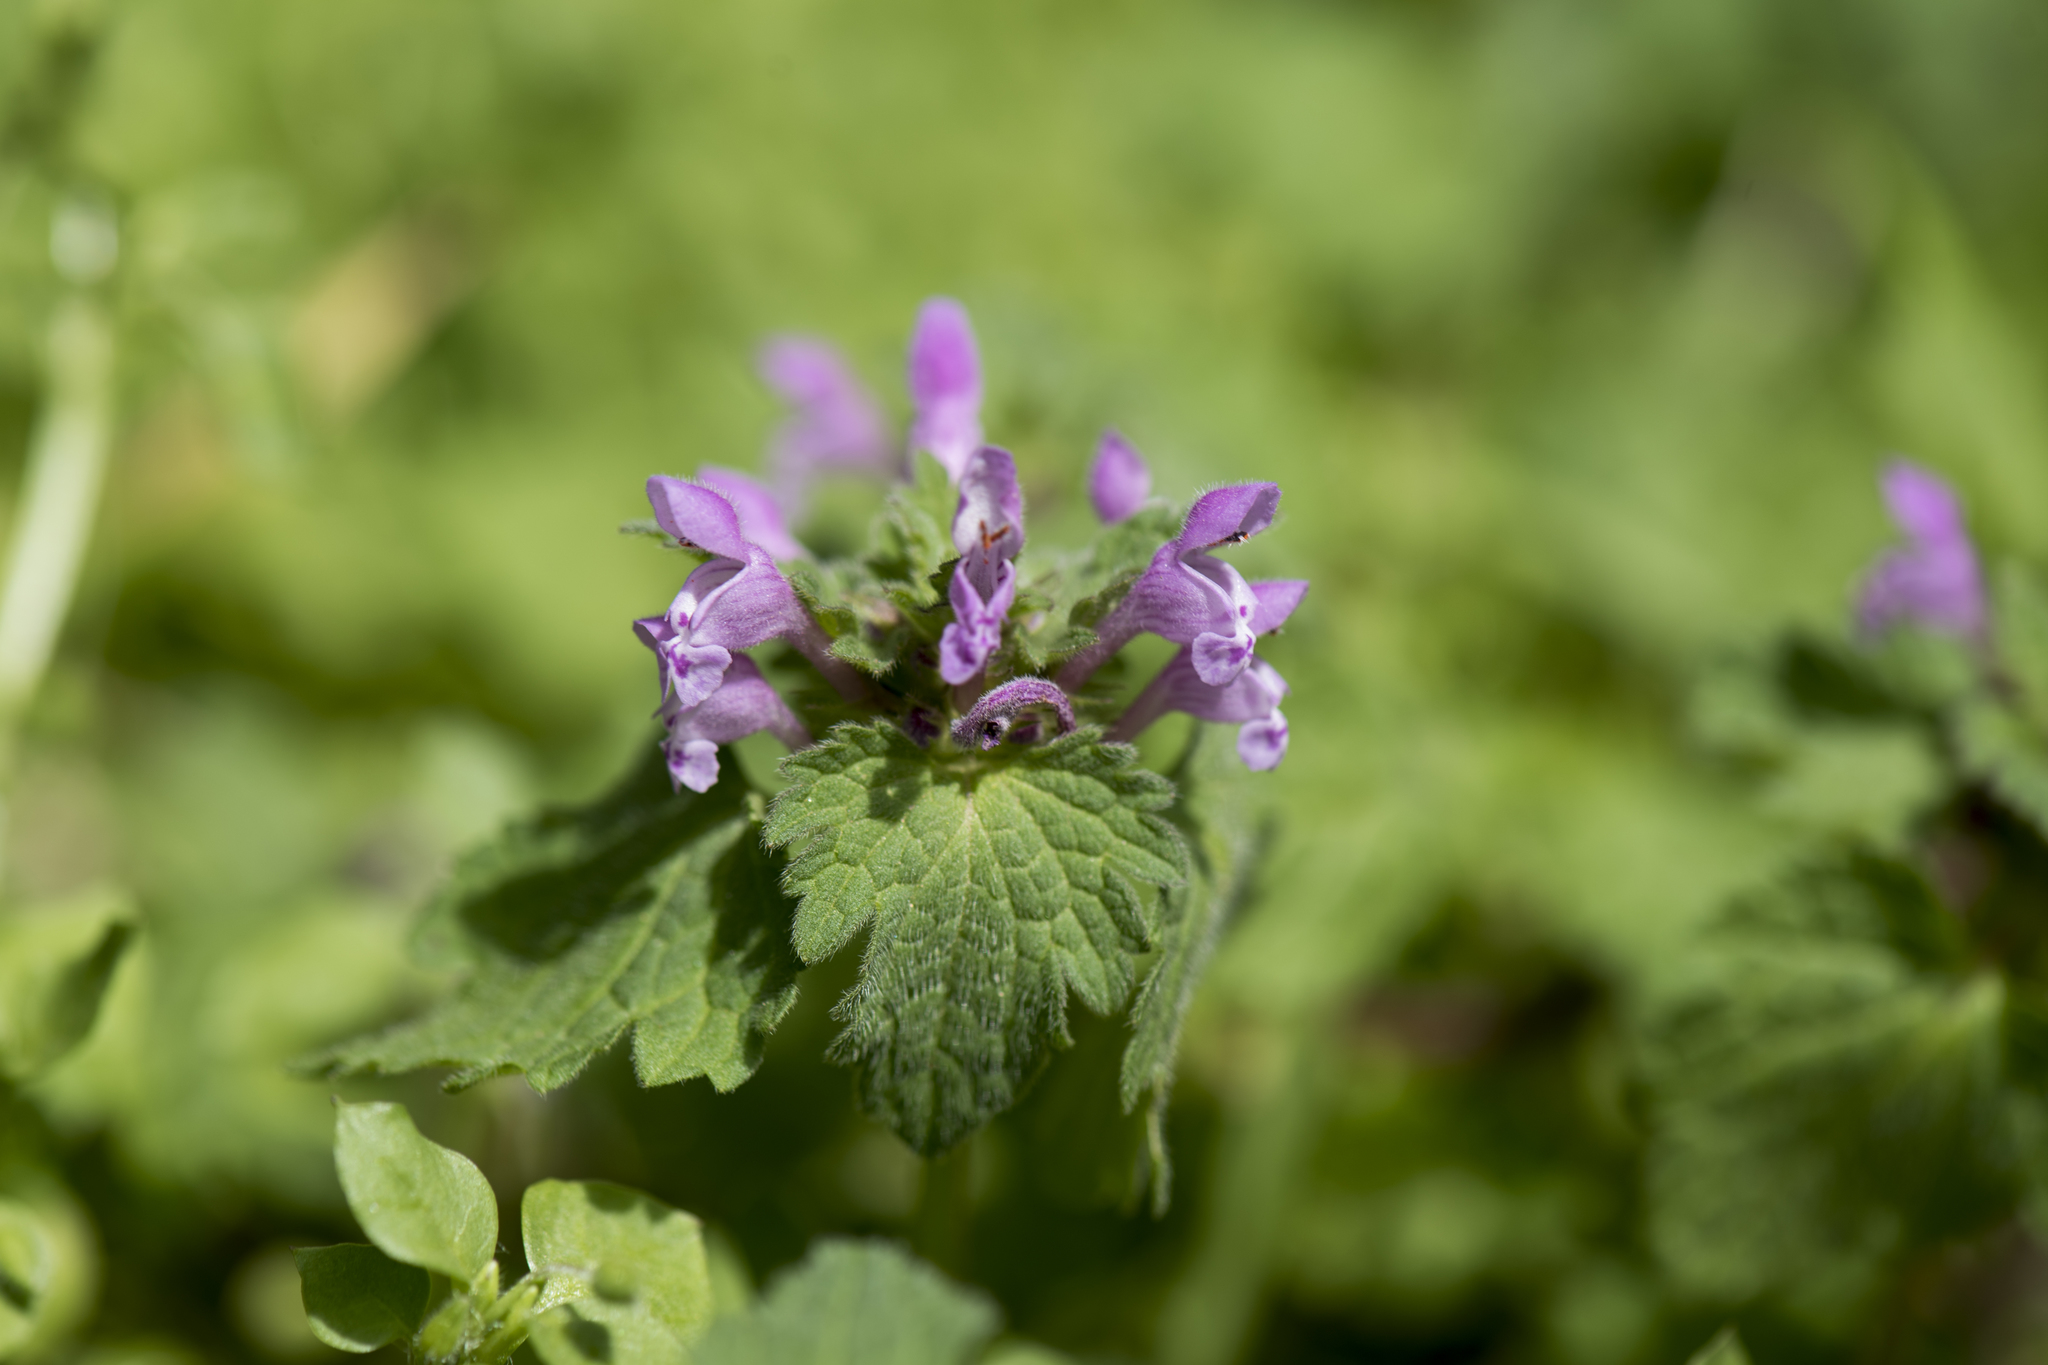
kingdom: Plantae
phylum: Tracheophyta
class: Magnoliopsida
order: Lamiales
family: Lamiaceae
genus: Lamium
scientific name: Lamium hybridum
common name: Cut-leaved dead-nettle
